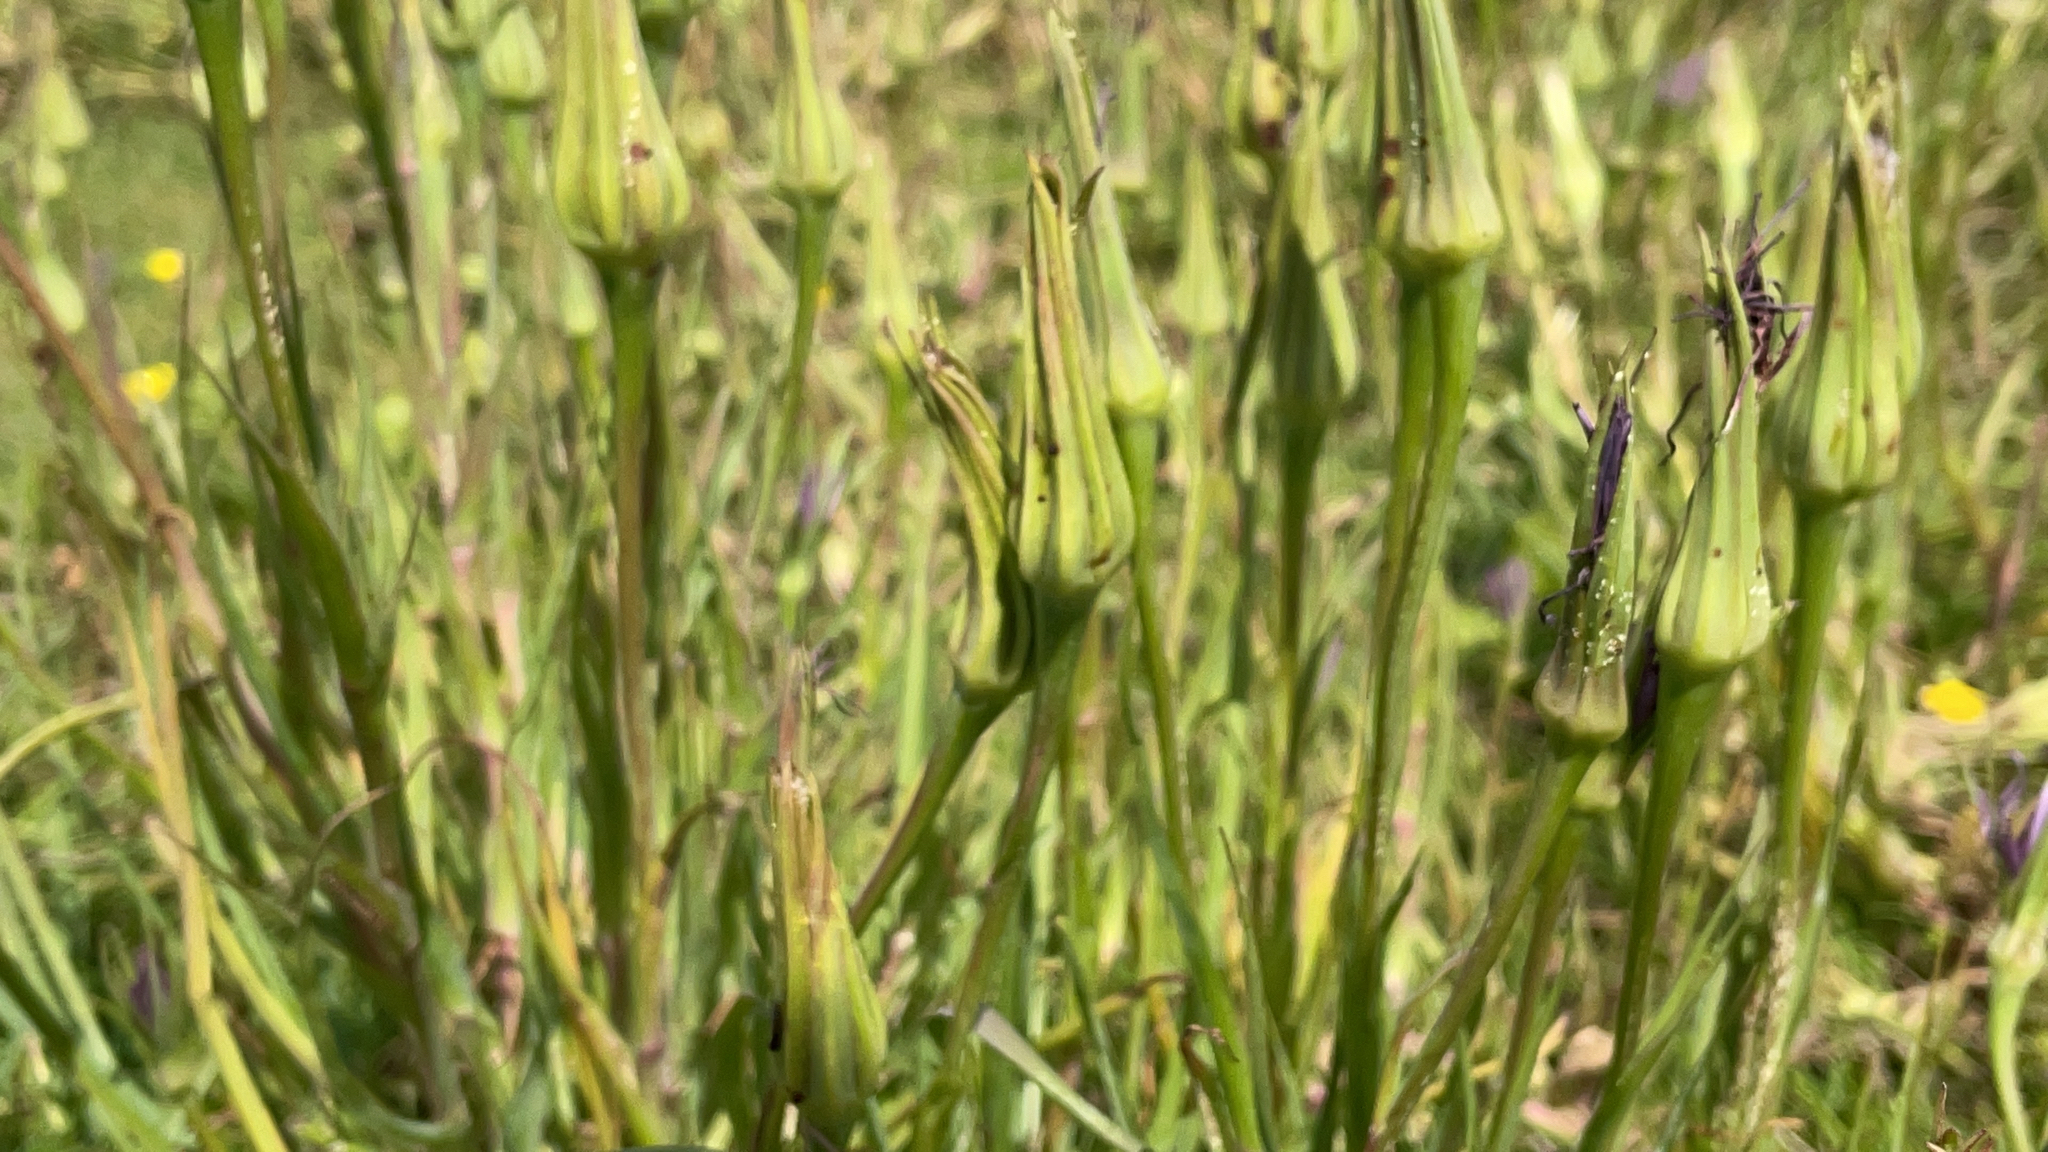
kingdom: Plantae
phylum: Tracheophyta
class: Magnoliopsida
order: Asterales
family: Asteraceae
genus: Tragopogon
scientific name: Tragopogon pratensis
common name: Goat's-beard
